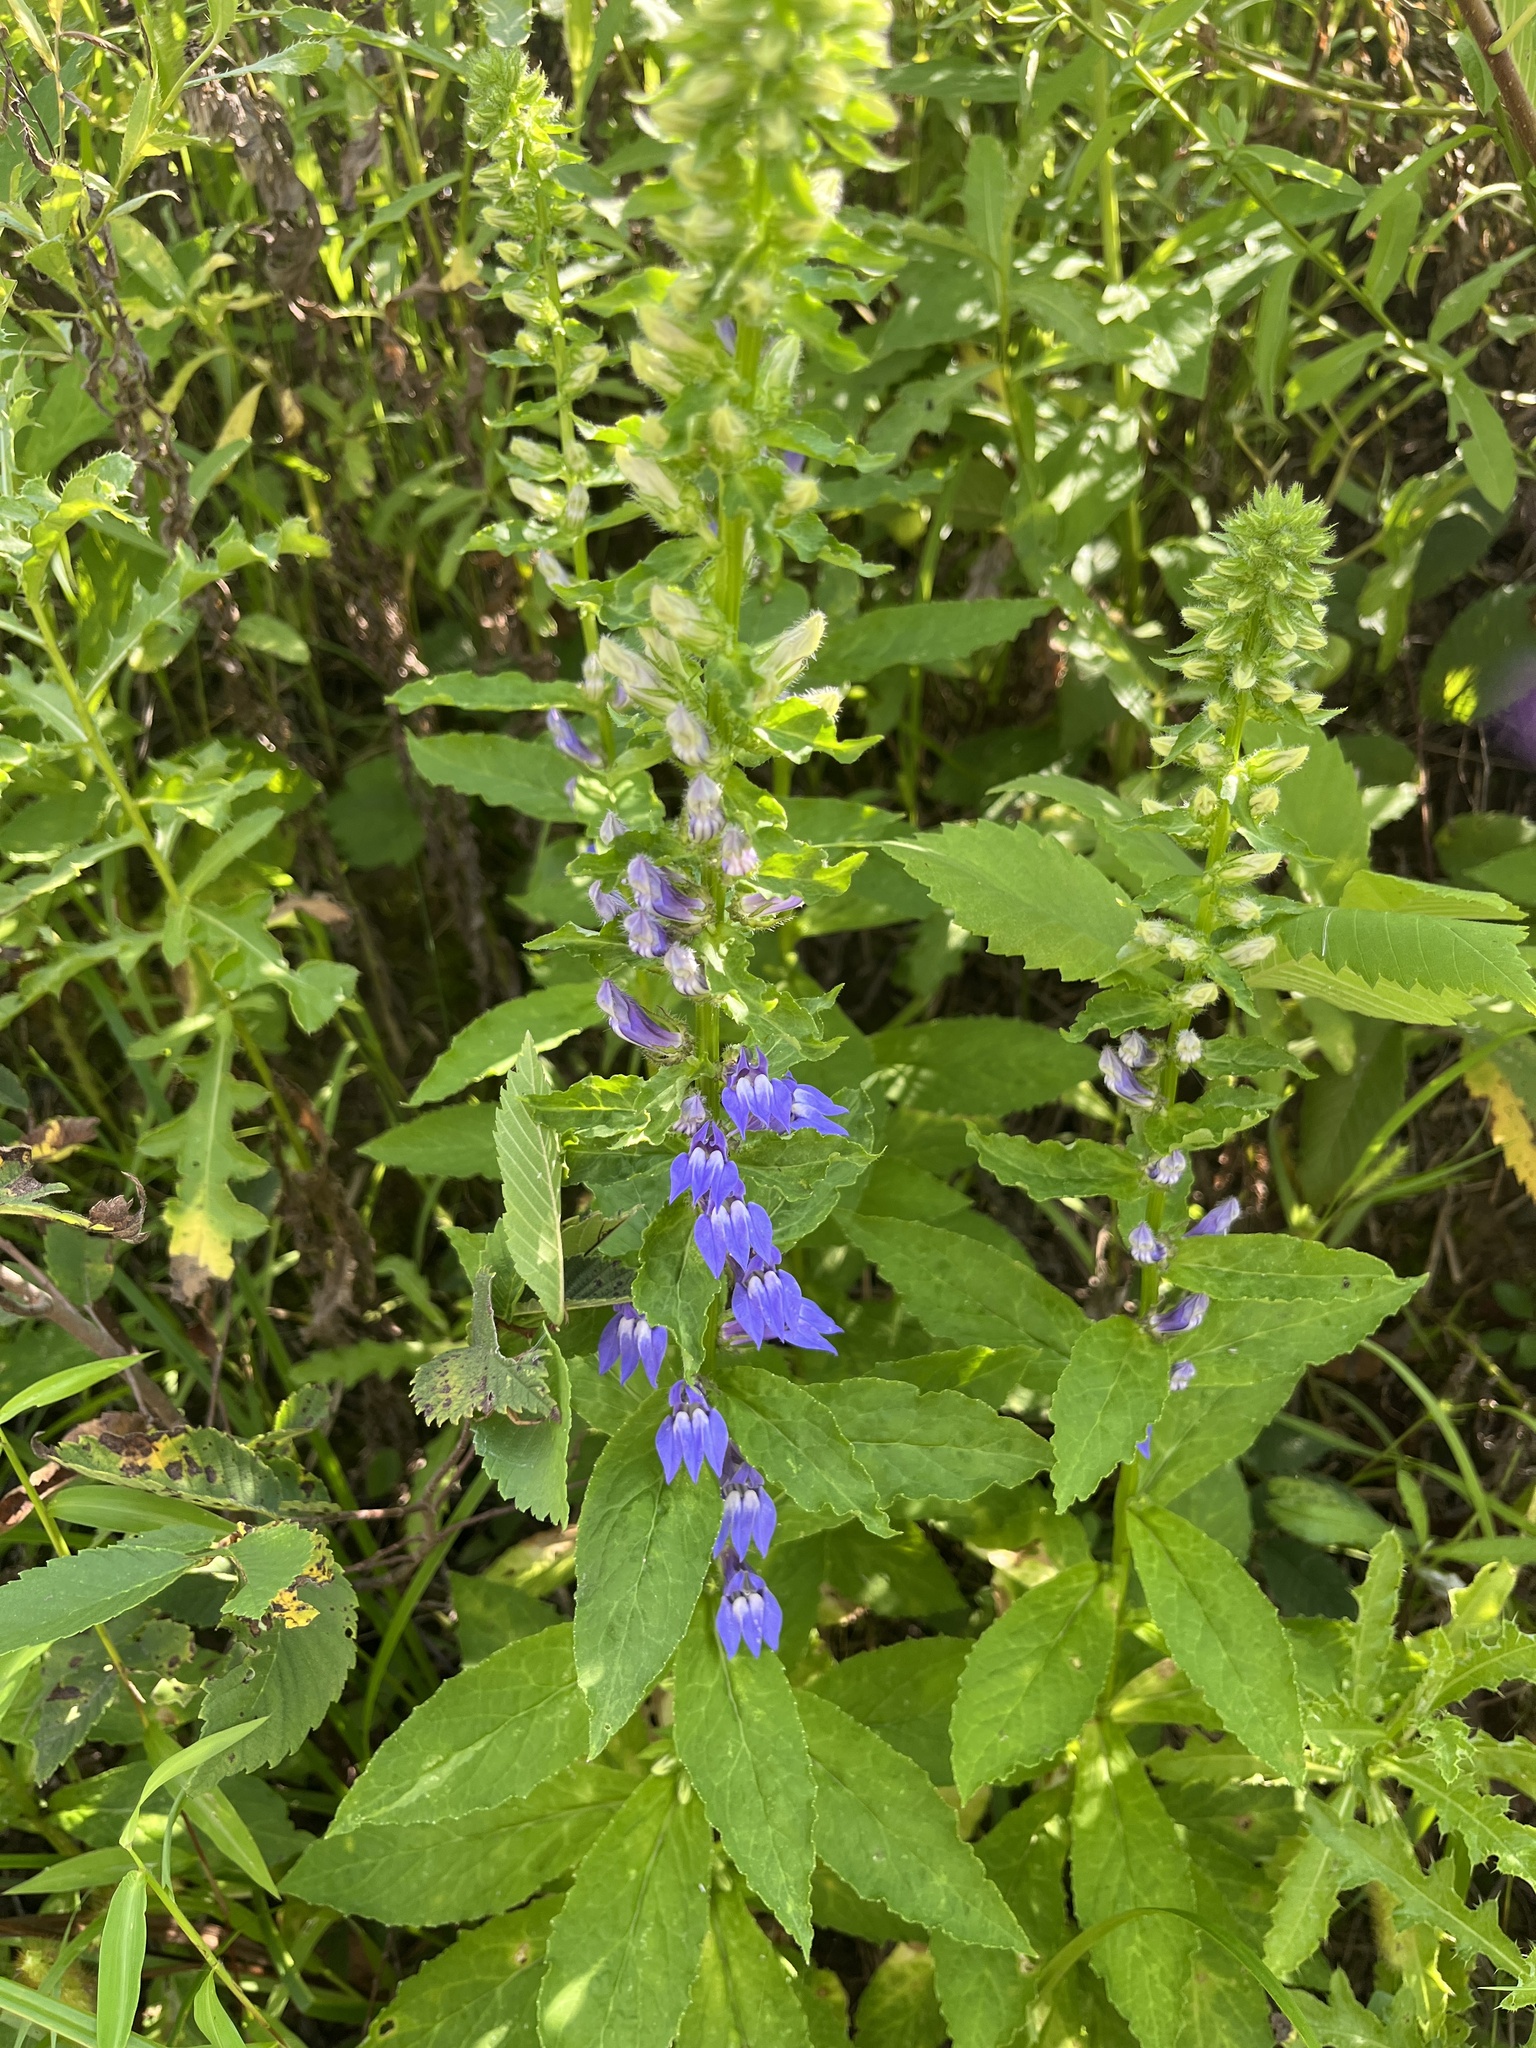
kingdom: Plantae
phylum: Tracheophyta
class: Magnoliopsida
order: Asterales
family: Campanulaceae
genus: Lobelia
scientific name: Lobelia siphilitica
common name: Great lobelia
